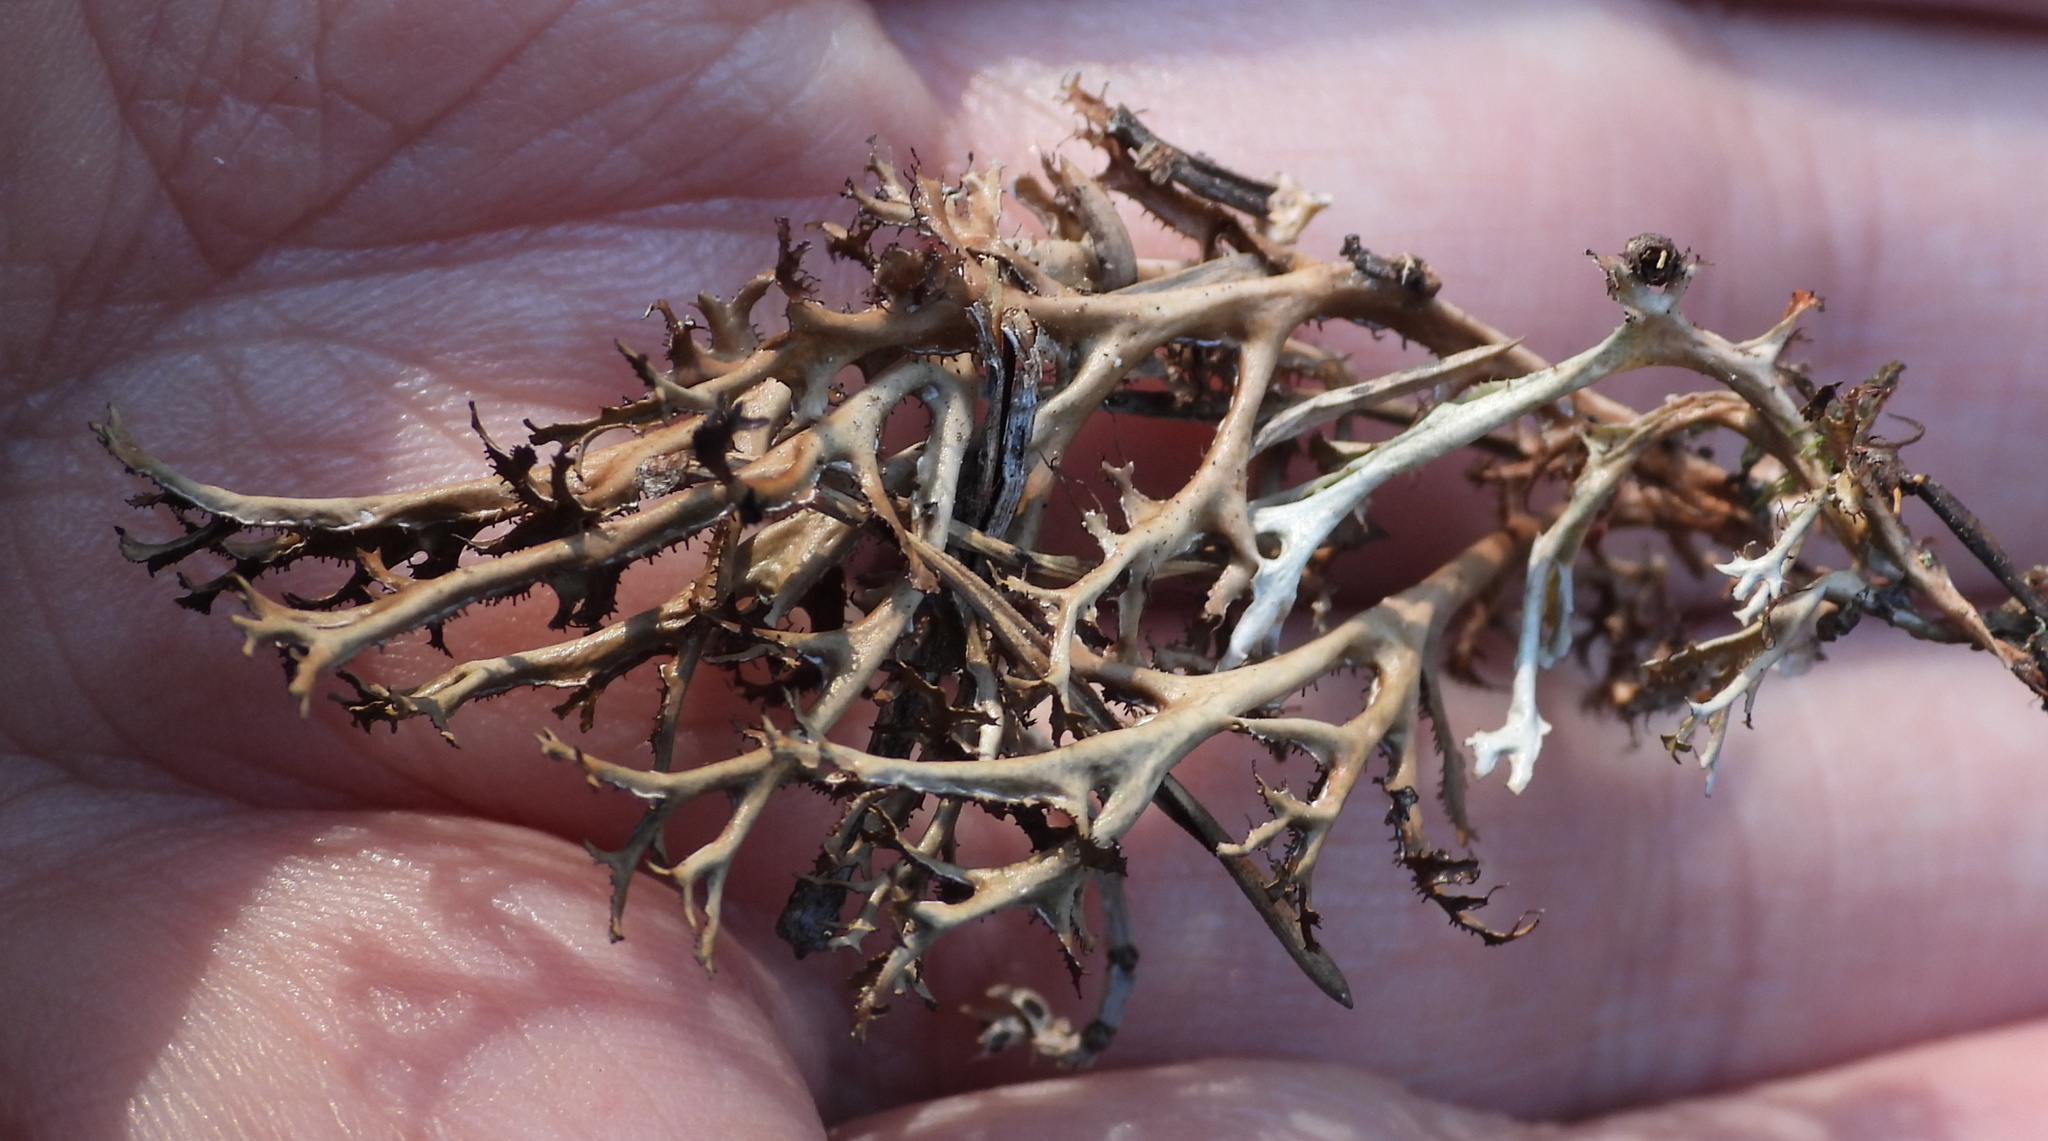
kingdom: Fungi
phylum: Ascomycota
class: Lecanoromycetes
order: Lecanorales
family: Parmeliaceae
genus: Cetraria
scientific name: Cetraria ericetorum
